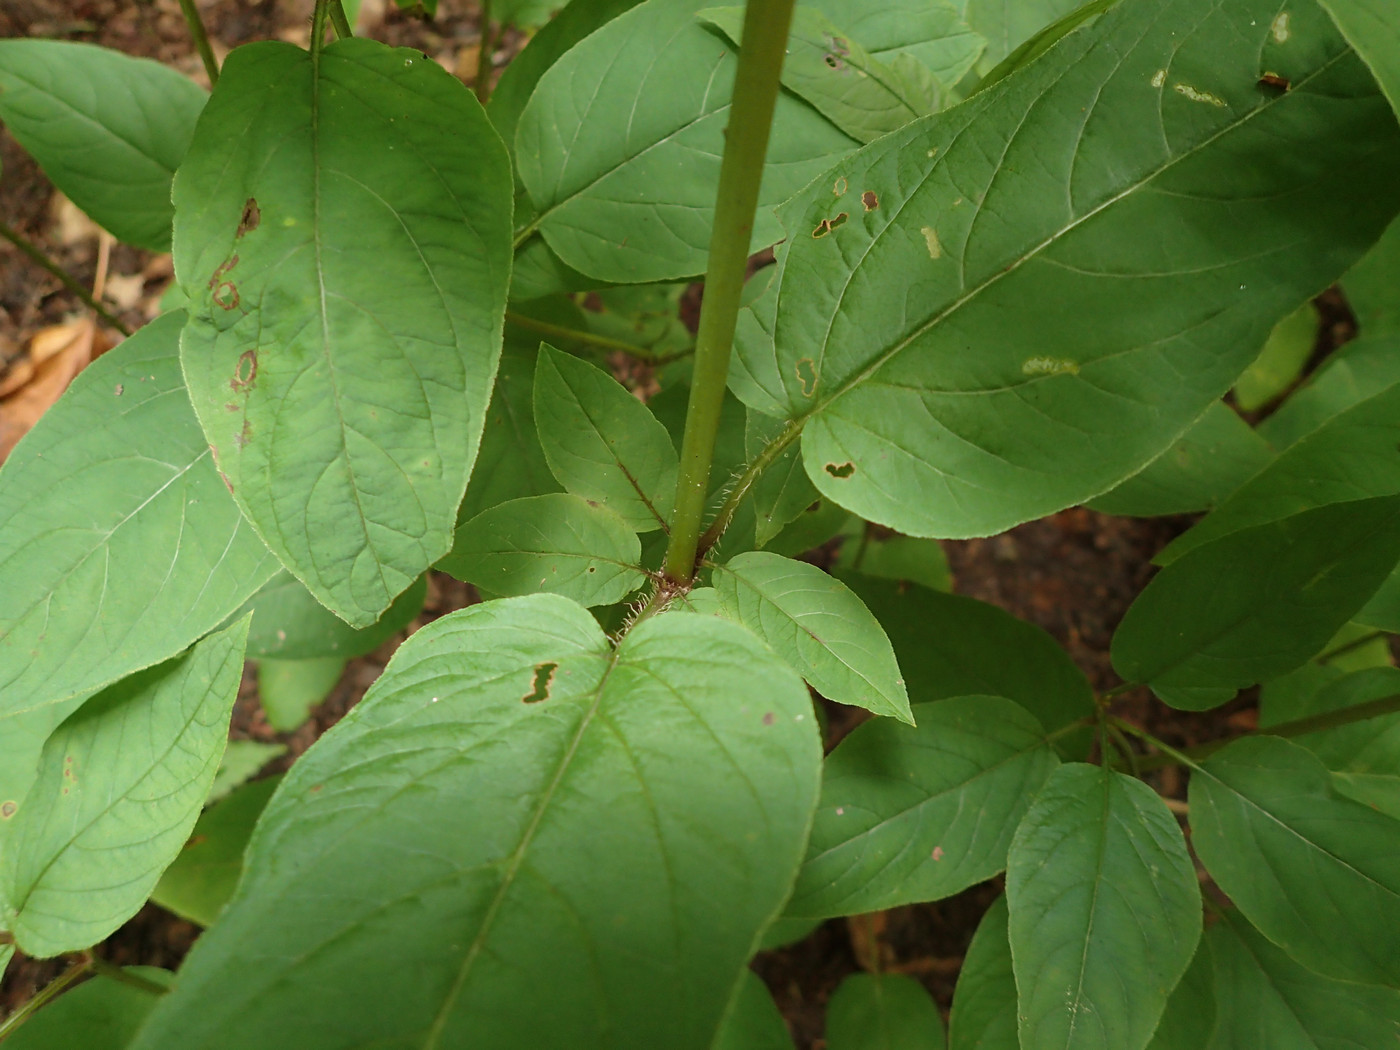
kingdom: Plantae
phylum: Tracheophyta
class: Magnoliopsida
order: Ericales
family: Primulaceae
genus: Lysimachia
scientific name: Lysimachia ciliata
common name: Fringed loosestrife
